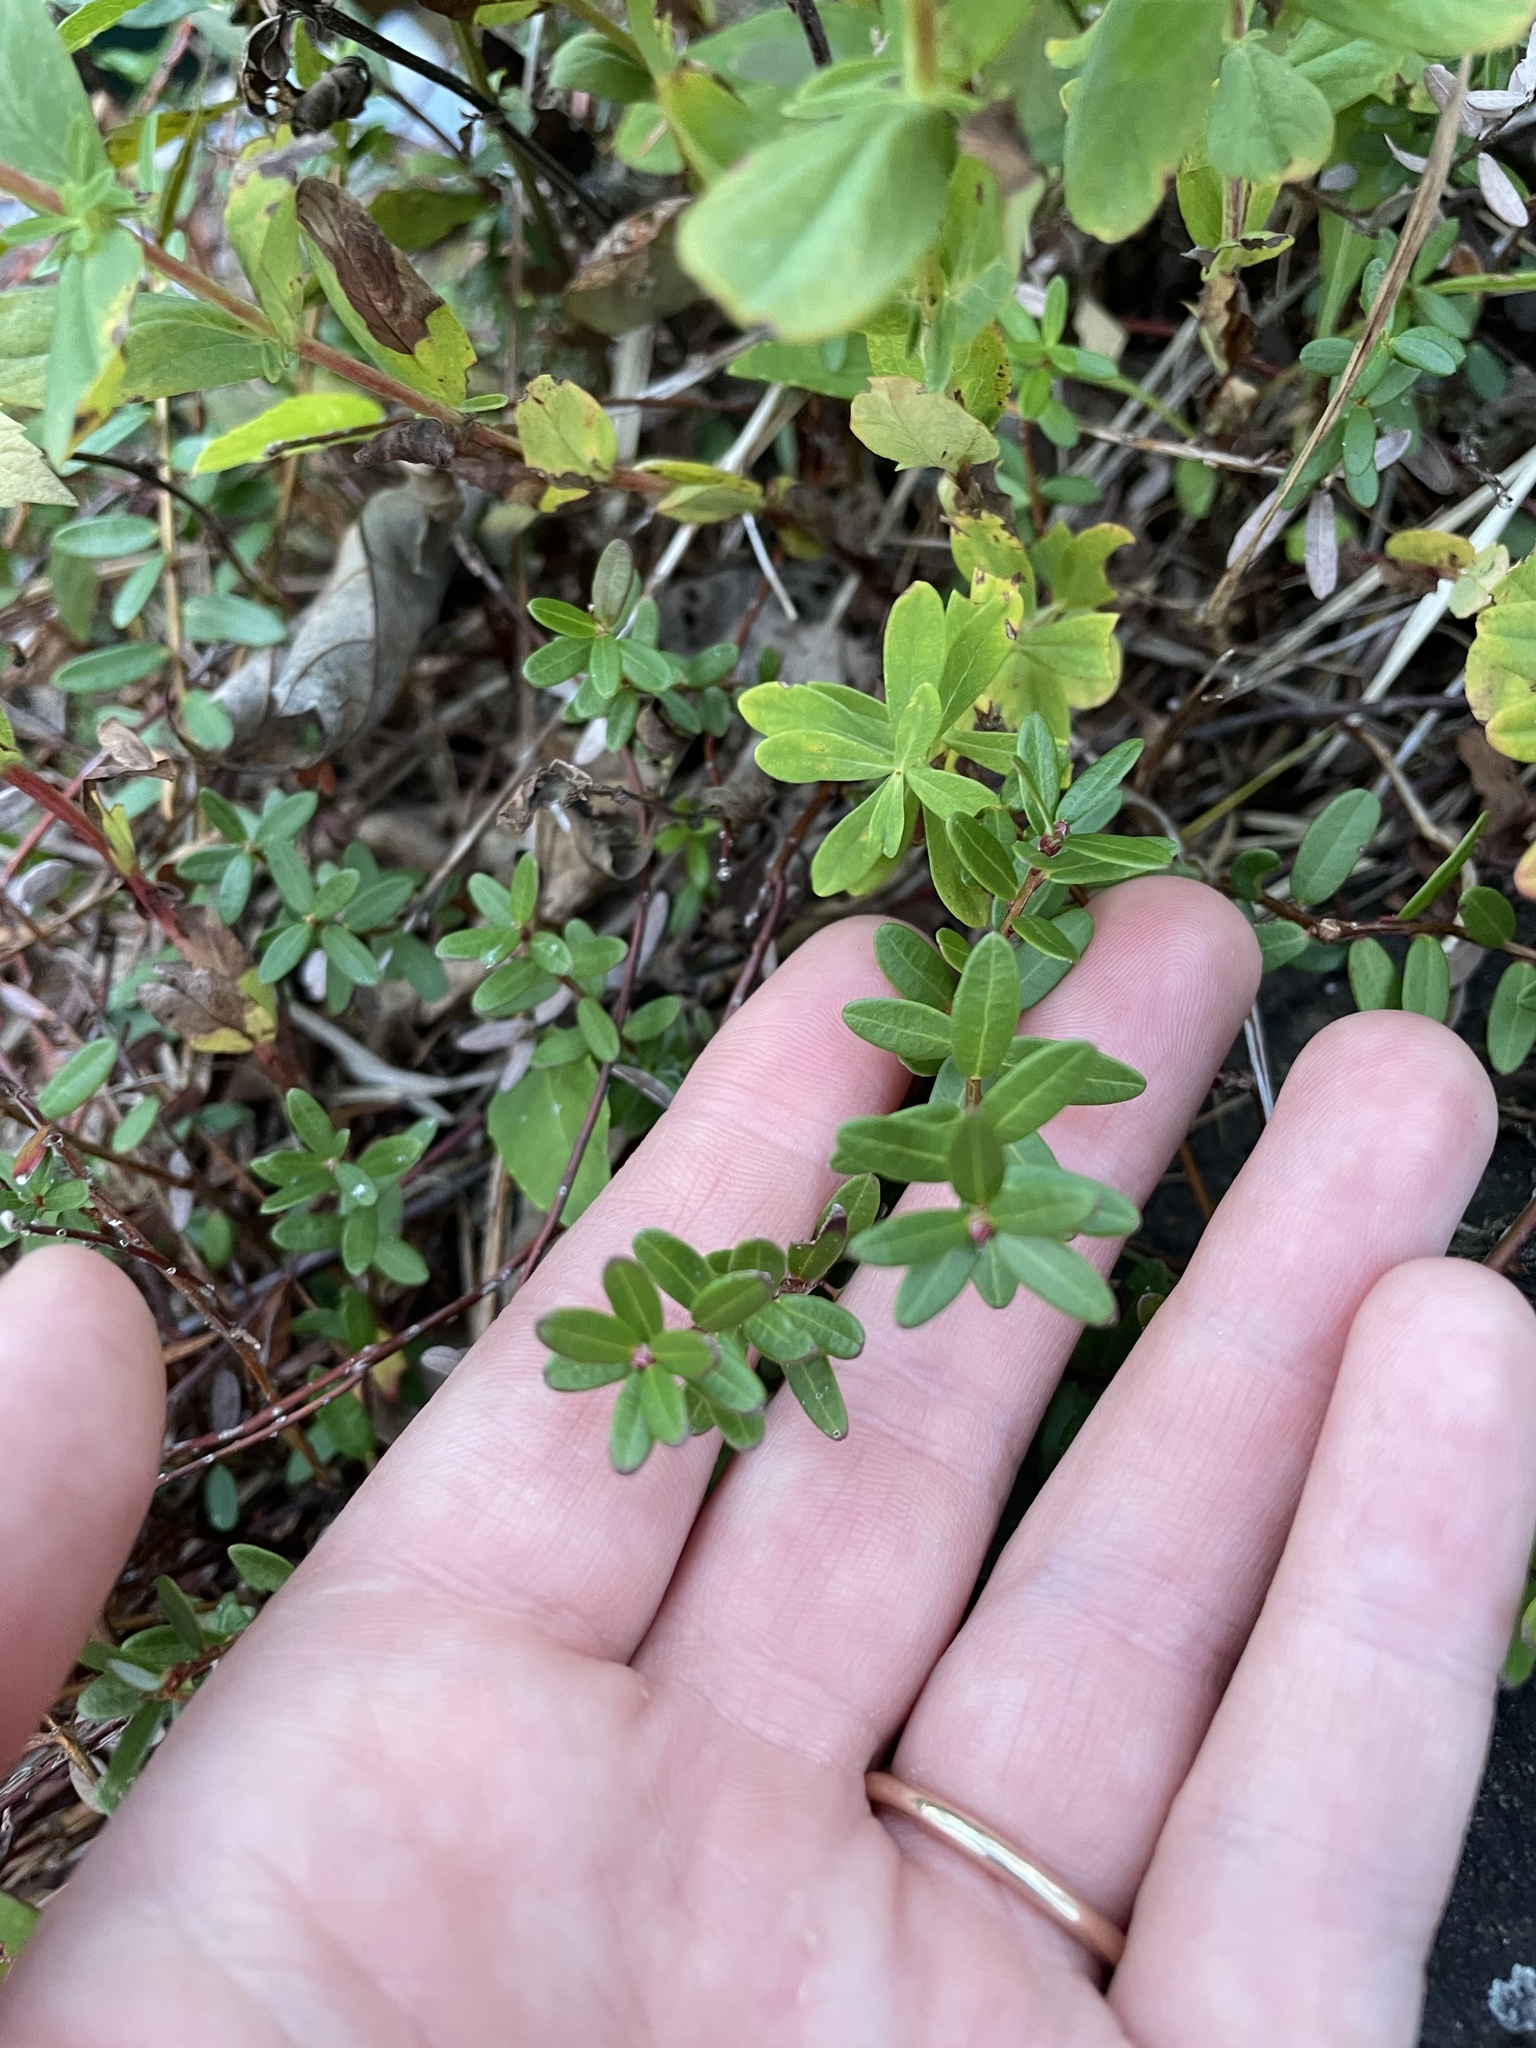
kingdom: Plantae
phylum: Tracheophyta
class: Magnoliopsida
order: Ericales
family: Ericaceae
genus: Vaccinium
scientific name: Vaccinium macrocarpon
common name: American cranberry
